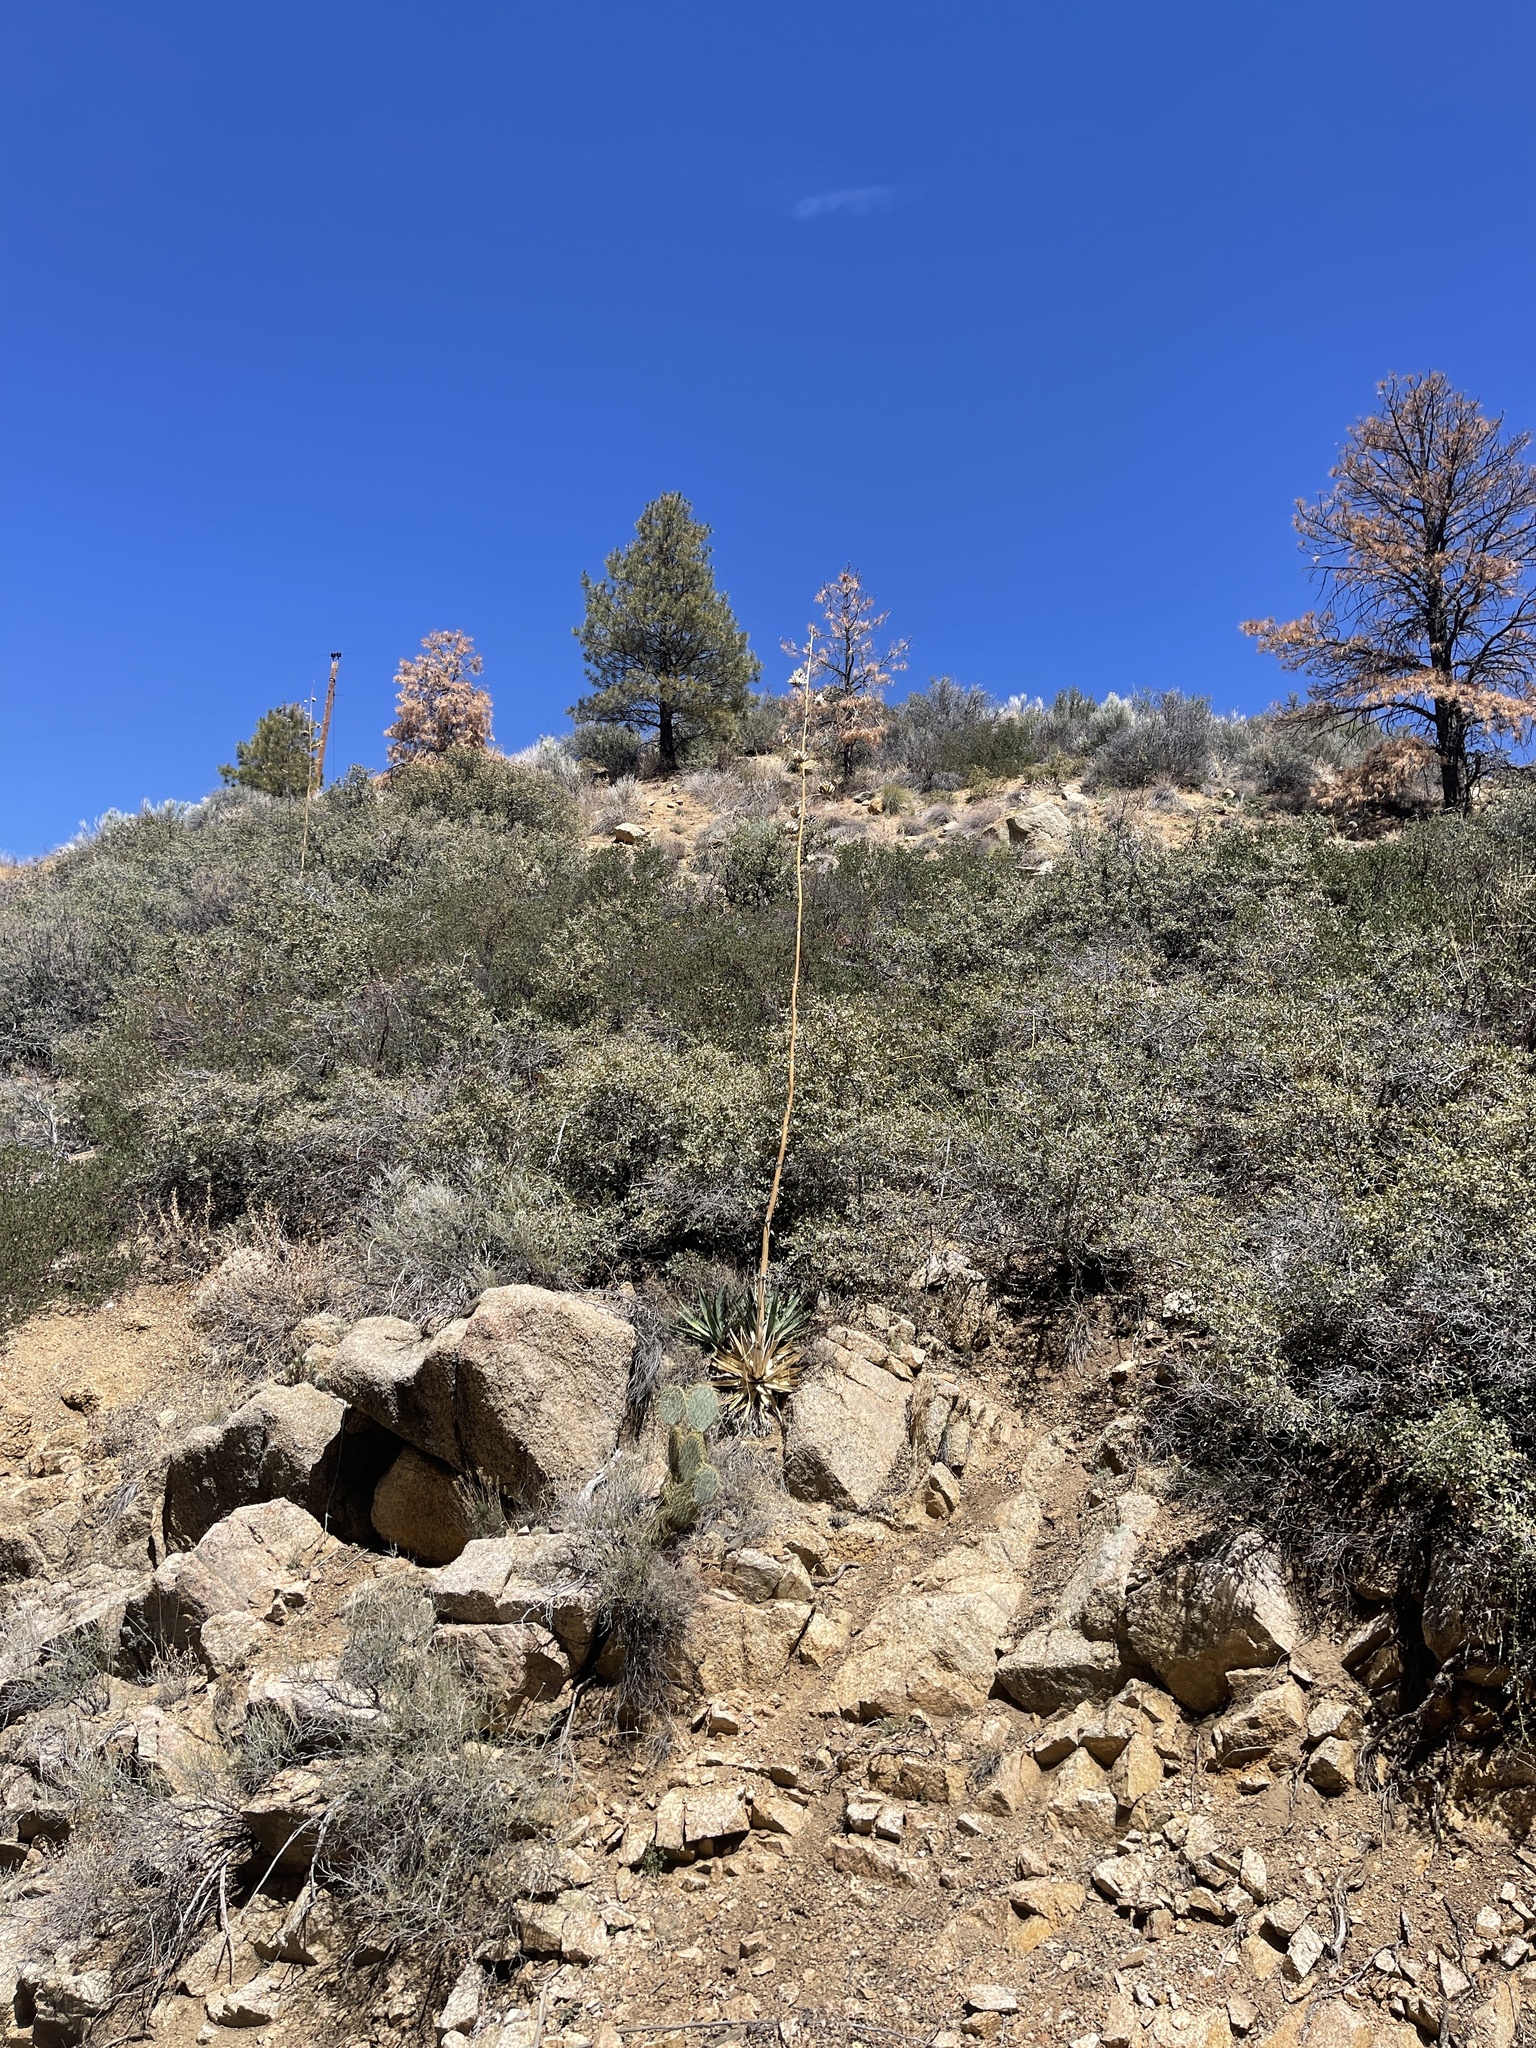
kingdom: Plantae
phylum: Tracheophyta
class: Liliopsida
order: Asparagales
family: Asparagaceae
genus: Agave
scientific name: Agave mckelveyana
